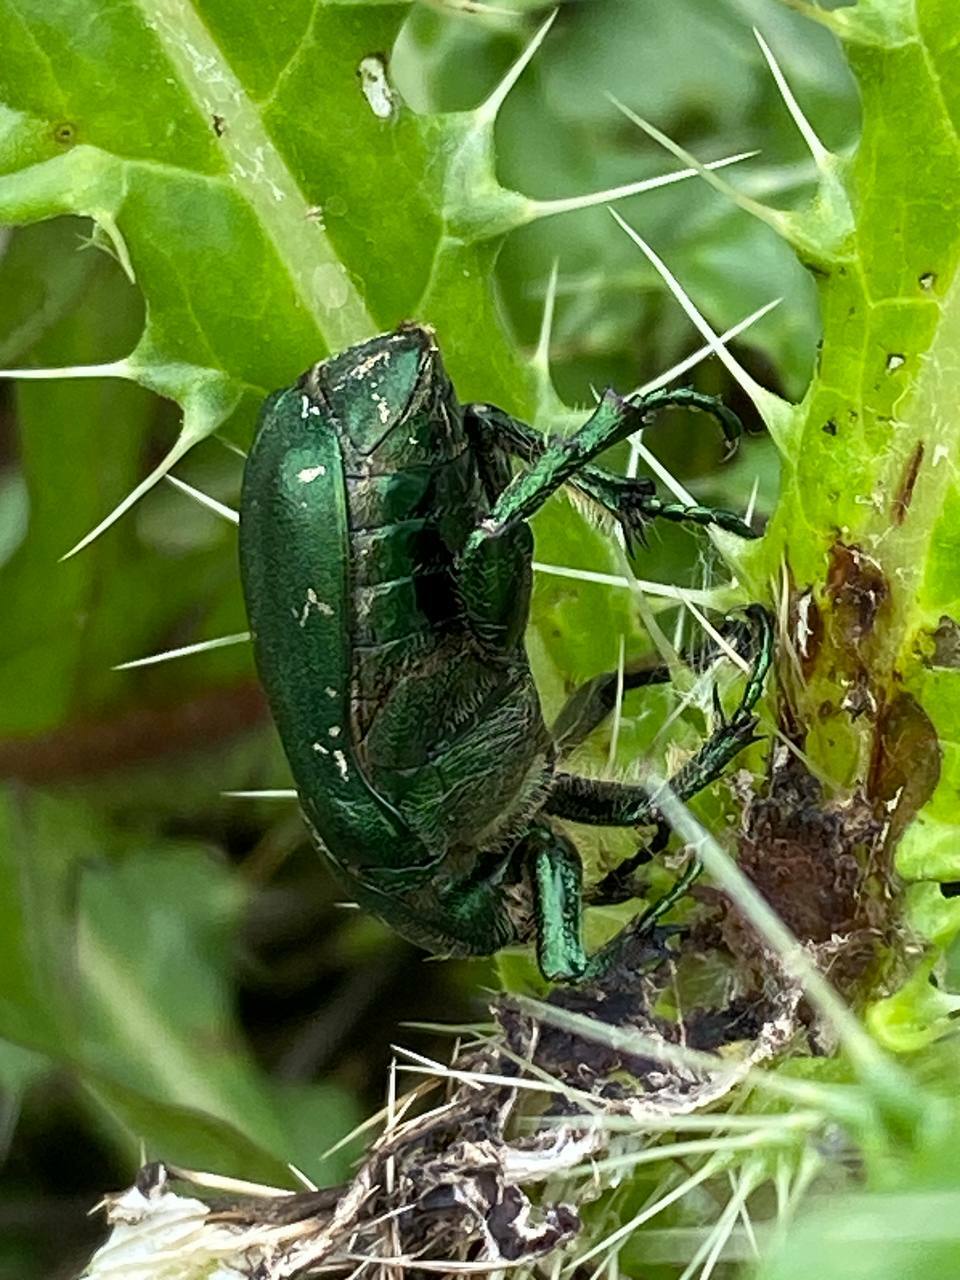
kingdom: Animalia
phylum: Arthropoda
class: Insecta
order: Coleoptera
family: Scarabaeidae
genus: Protaetia
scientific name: Protaetia ungarica
